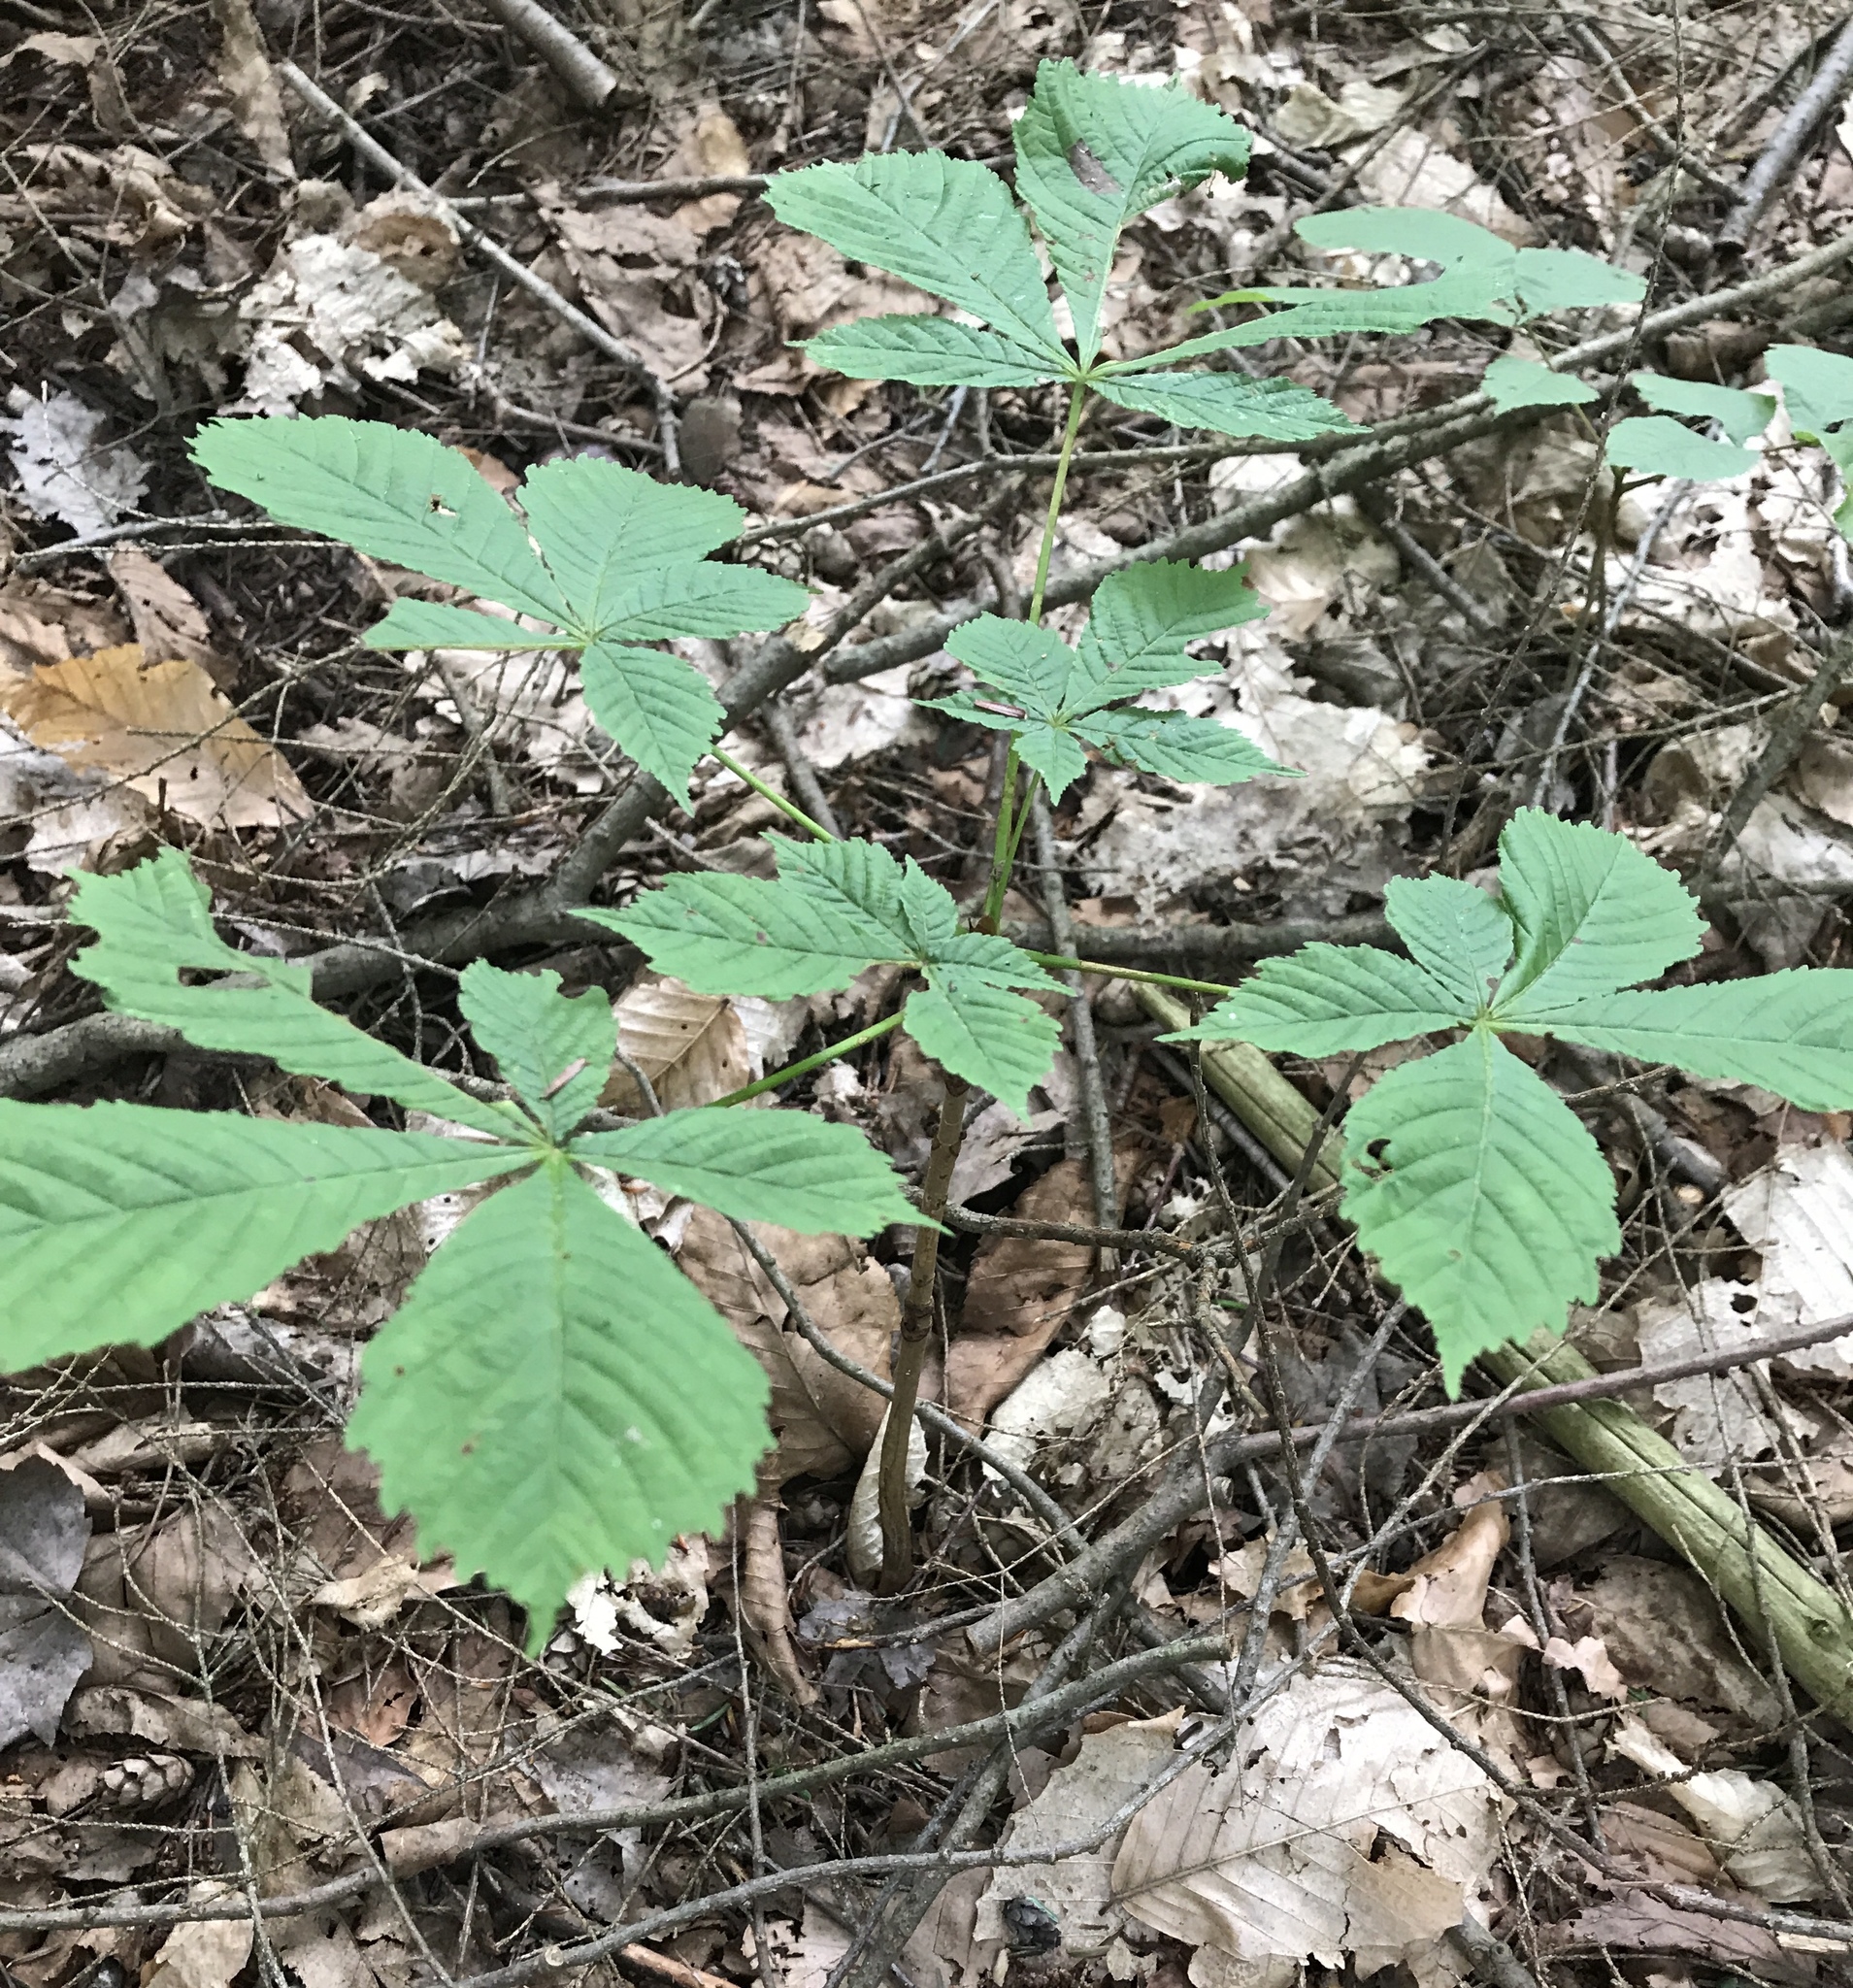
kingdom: Plantae
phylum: Tracheophyta
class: Magnoliopsida
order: Sapindales
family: Sapindaceae
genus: Aesculus
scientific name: Aesculus hippocastanum
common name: Horse-chestnut
